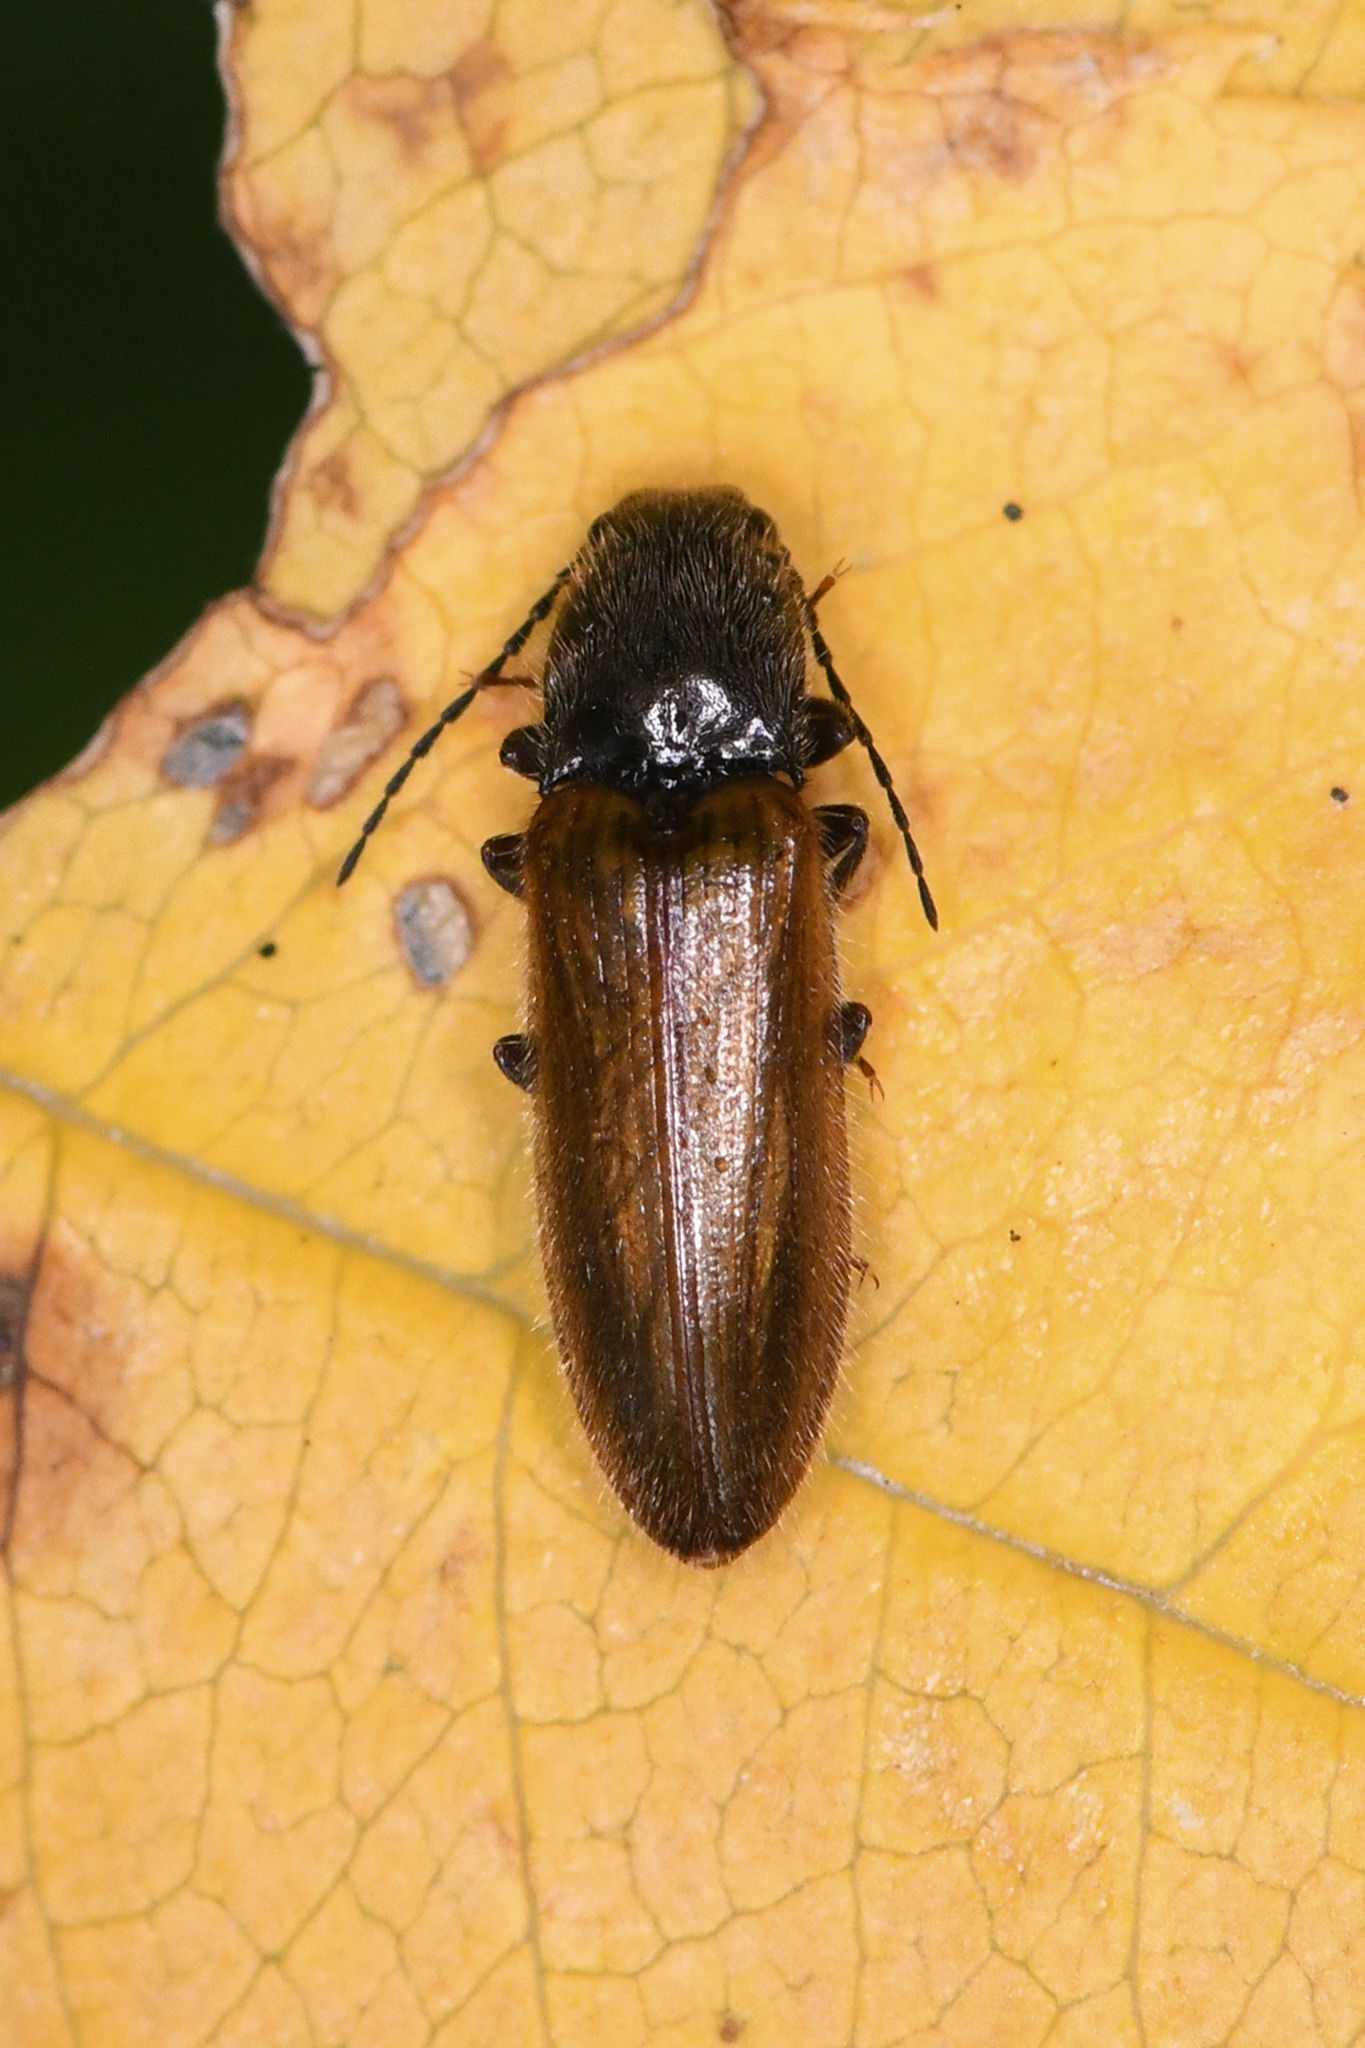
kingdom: Animalia
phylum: Arthropoda
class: Insecta
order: Coleoptera
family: Elateridae
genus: Hemicrepidius
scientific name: Hemicrepidius pallidipennis
